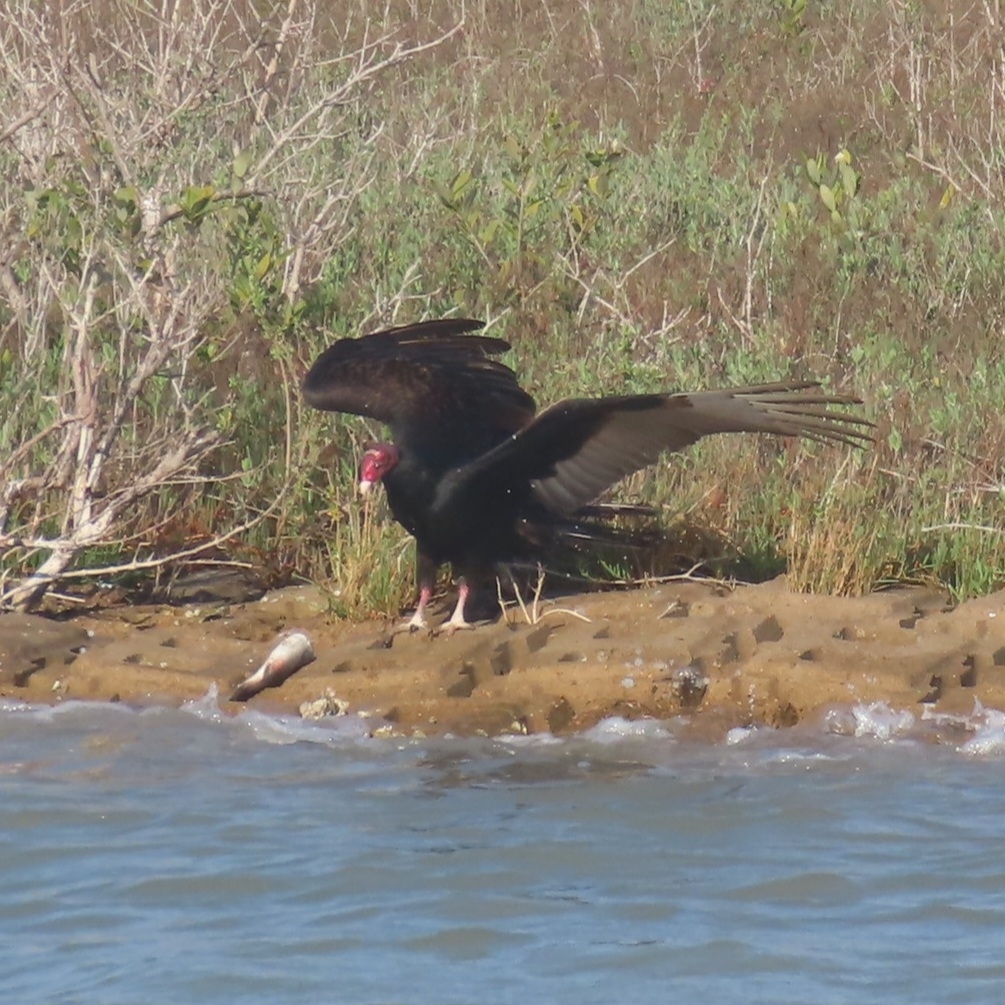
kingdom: Animalia
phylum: Chordata
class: Aves
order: Accipitriformes
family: Cathartidae
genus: Cathartes
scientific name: Cathartes aura
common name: Turkey vulture
